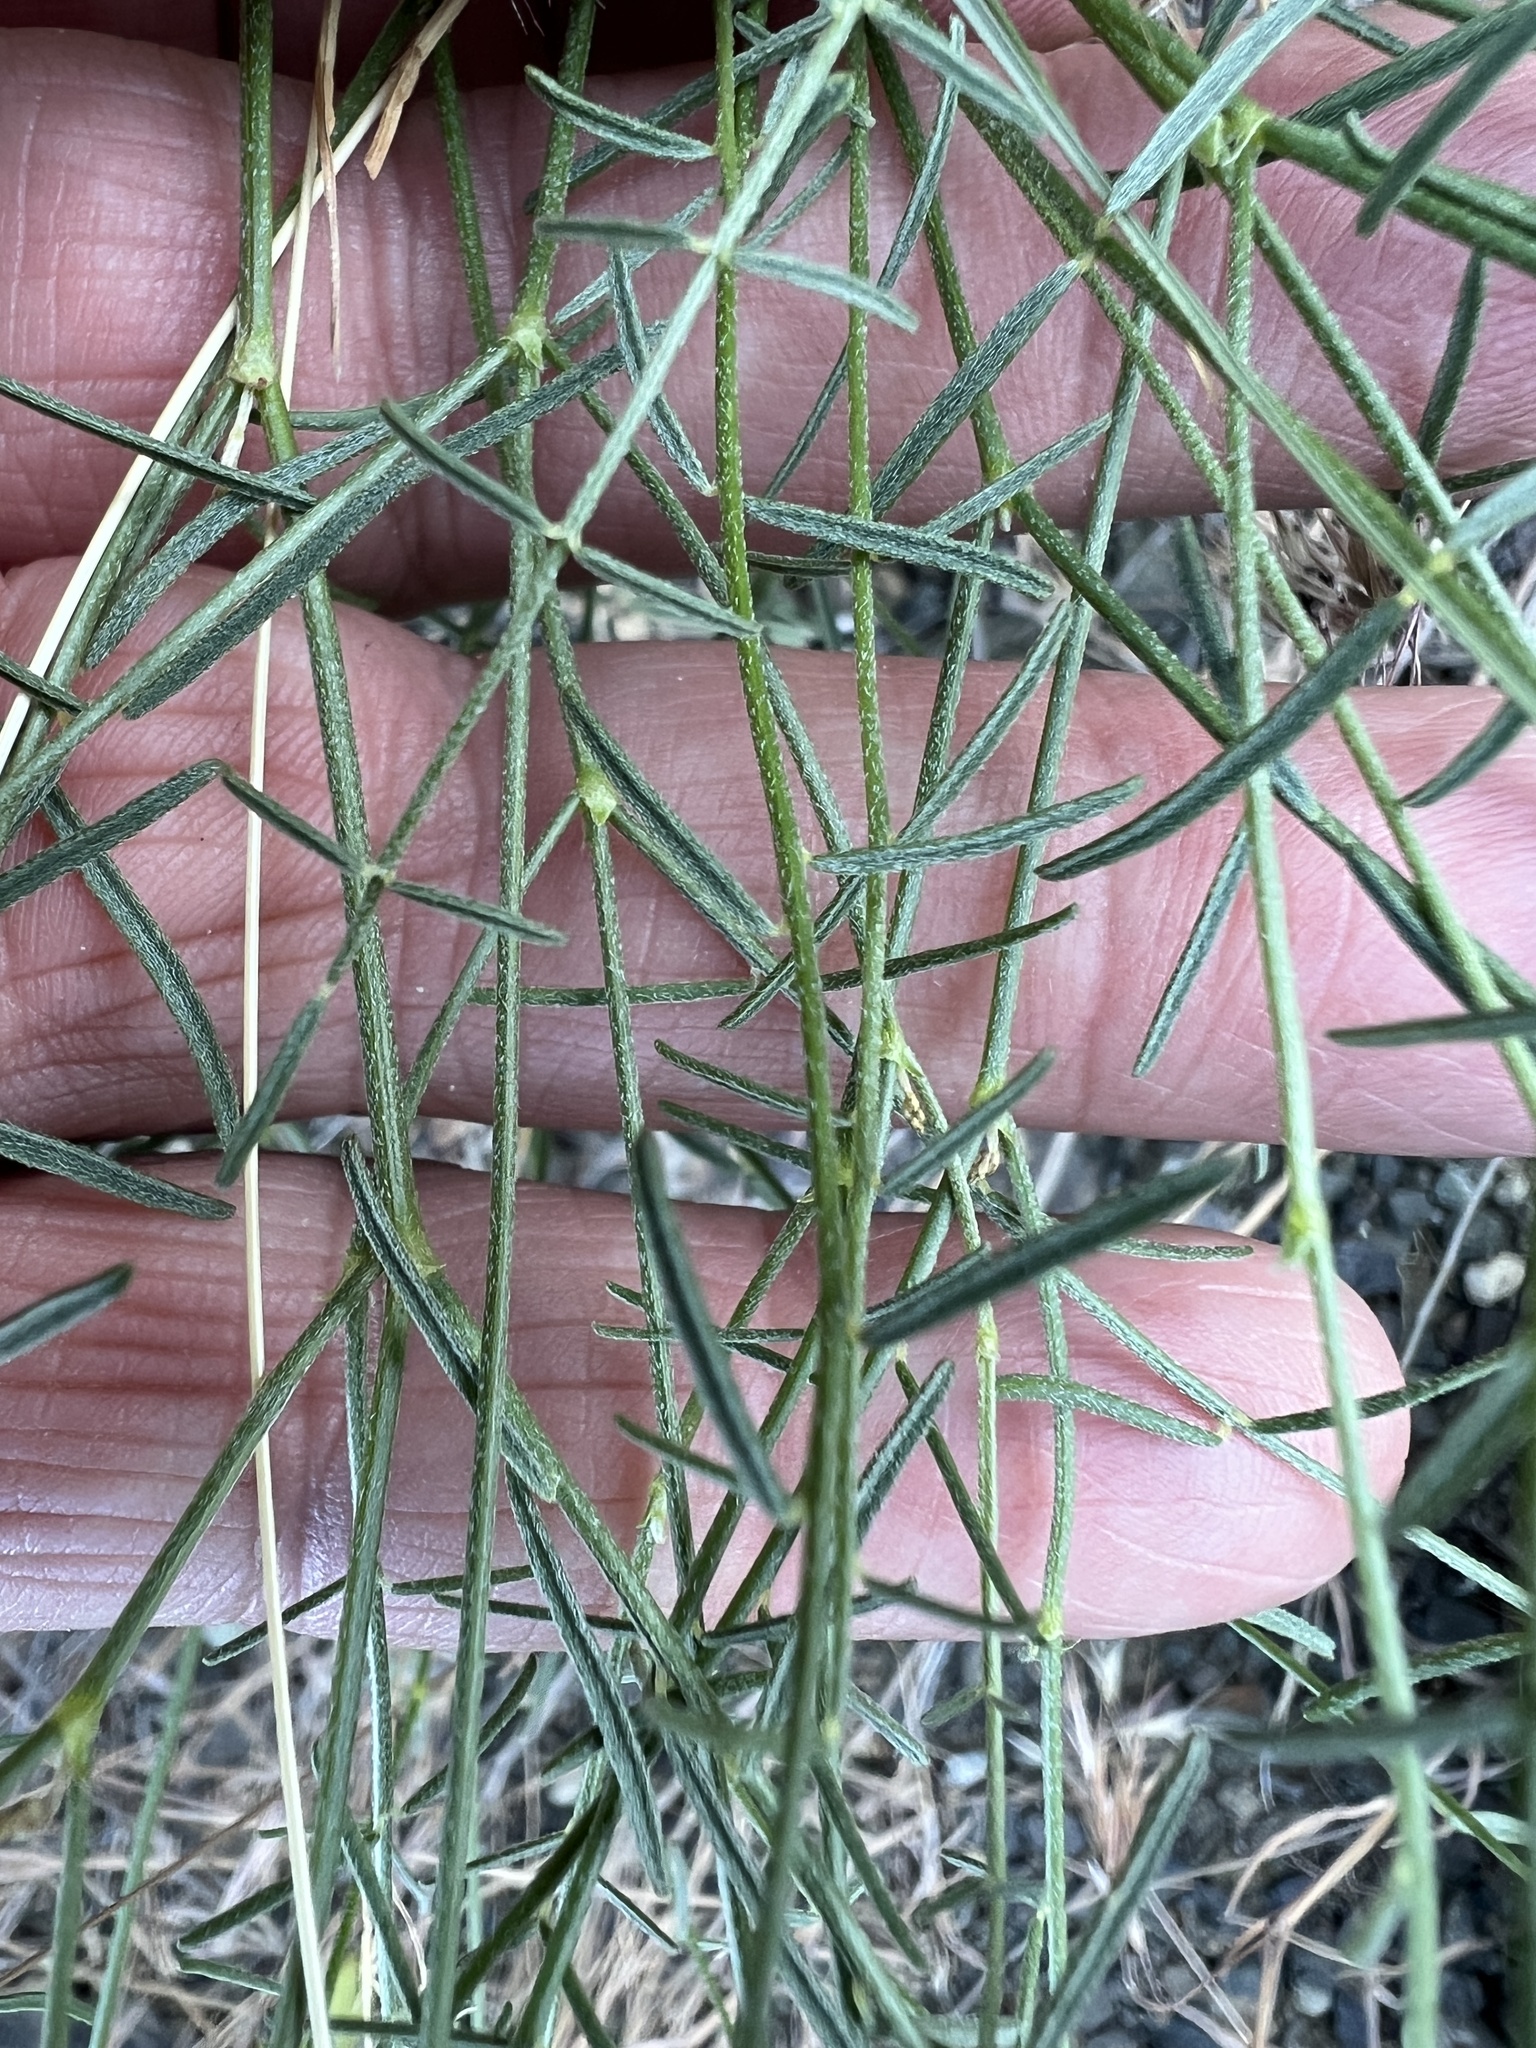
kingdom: Plantae
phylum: Tracheophyta
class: Magnoliopsida
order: Fabales
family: Fabaceae
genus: Astragalus
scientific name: Astragalus filipes
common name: Basalt milk-vetch
